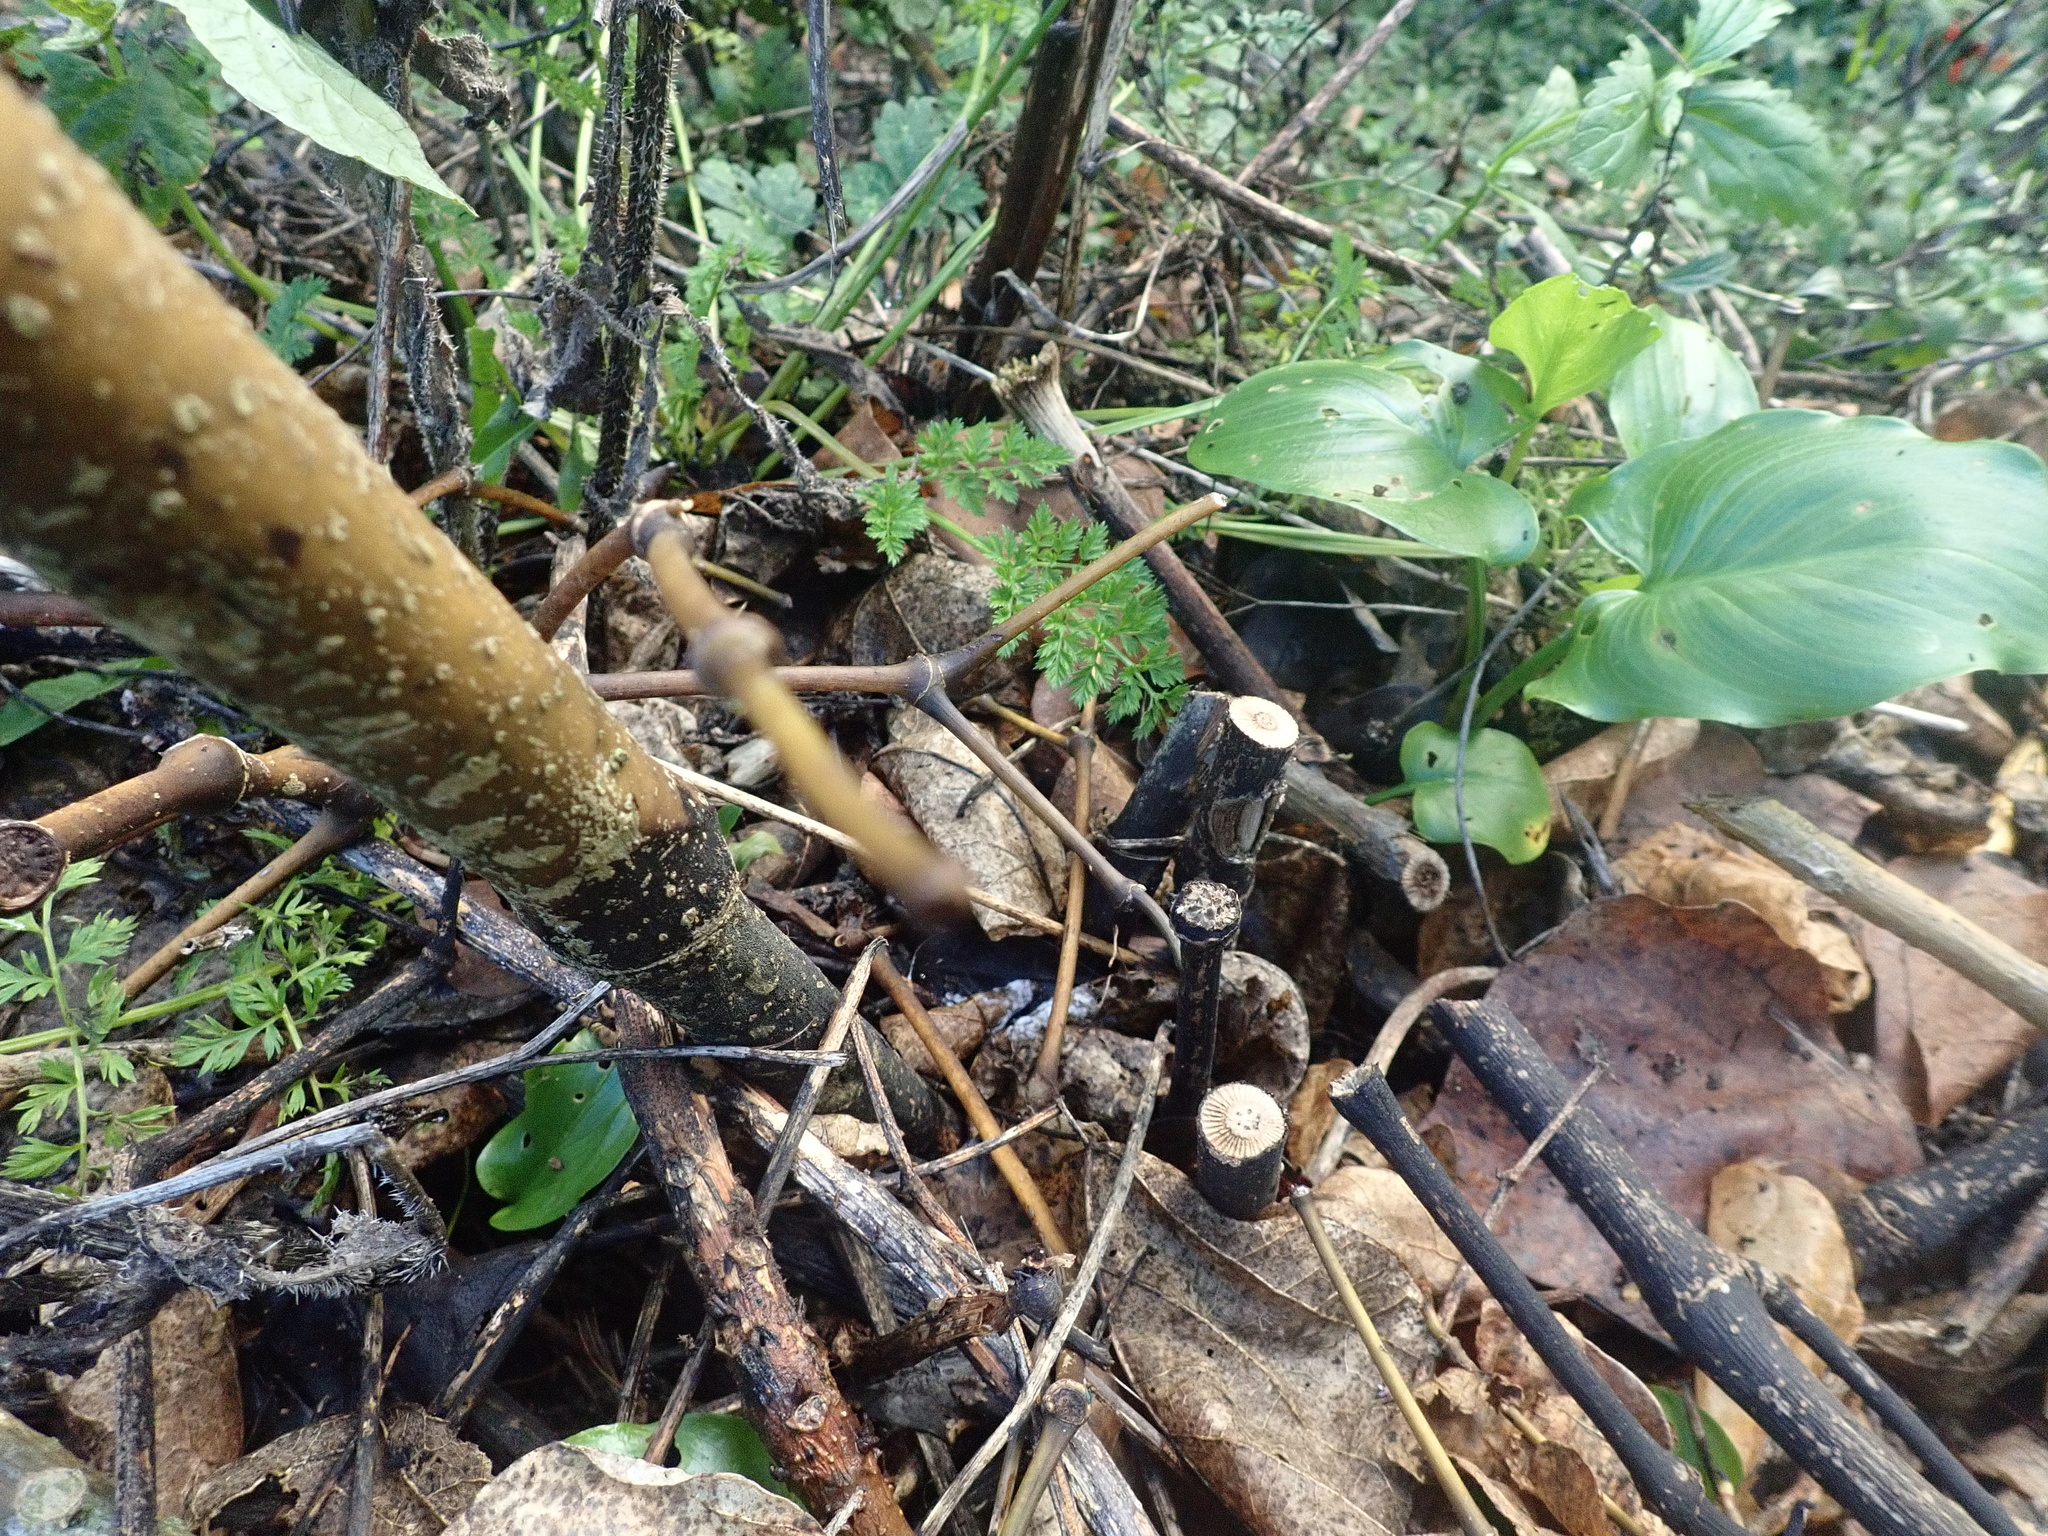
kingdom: Plantae
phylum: Tracheophyta
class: Magnoliopsida
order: Piperales
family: Piperaceae
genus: Macropiper
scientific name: Macropiper excelsum
